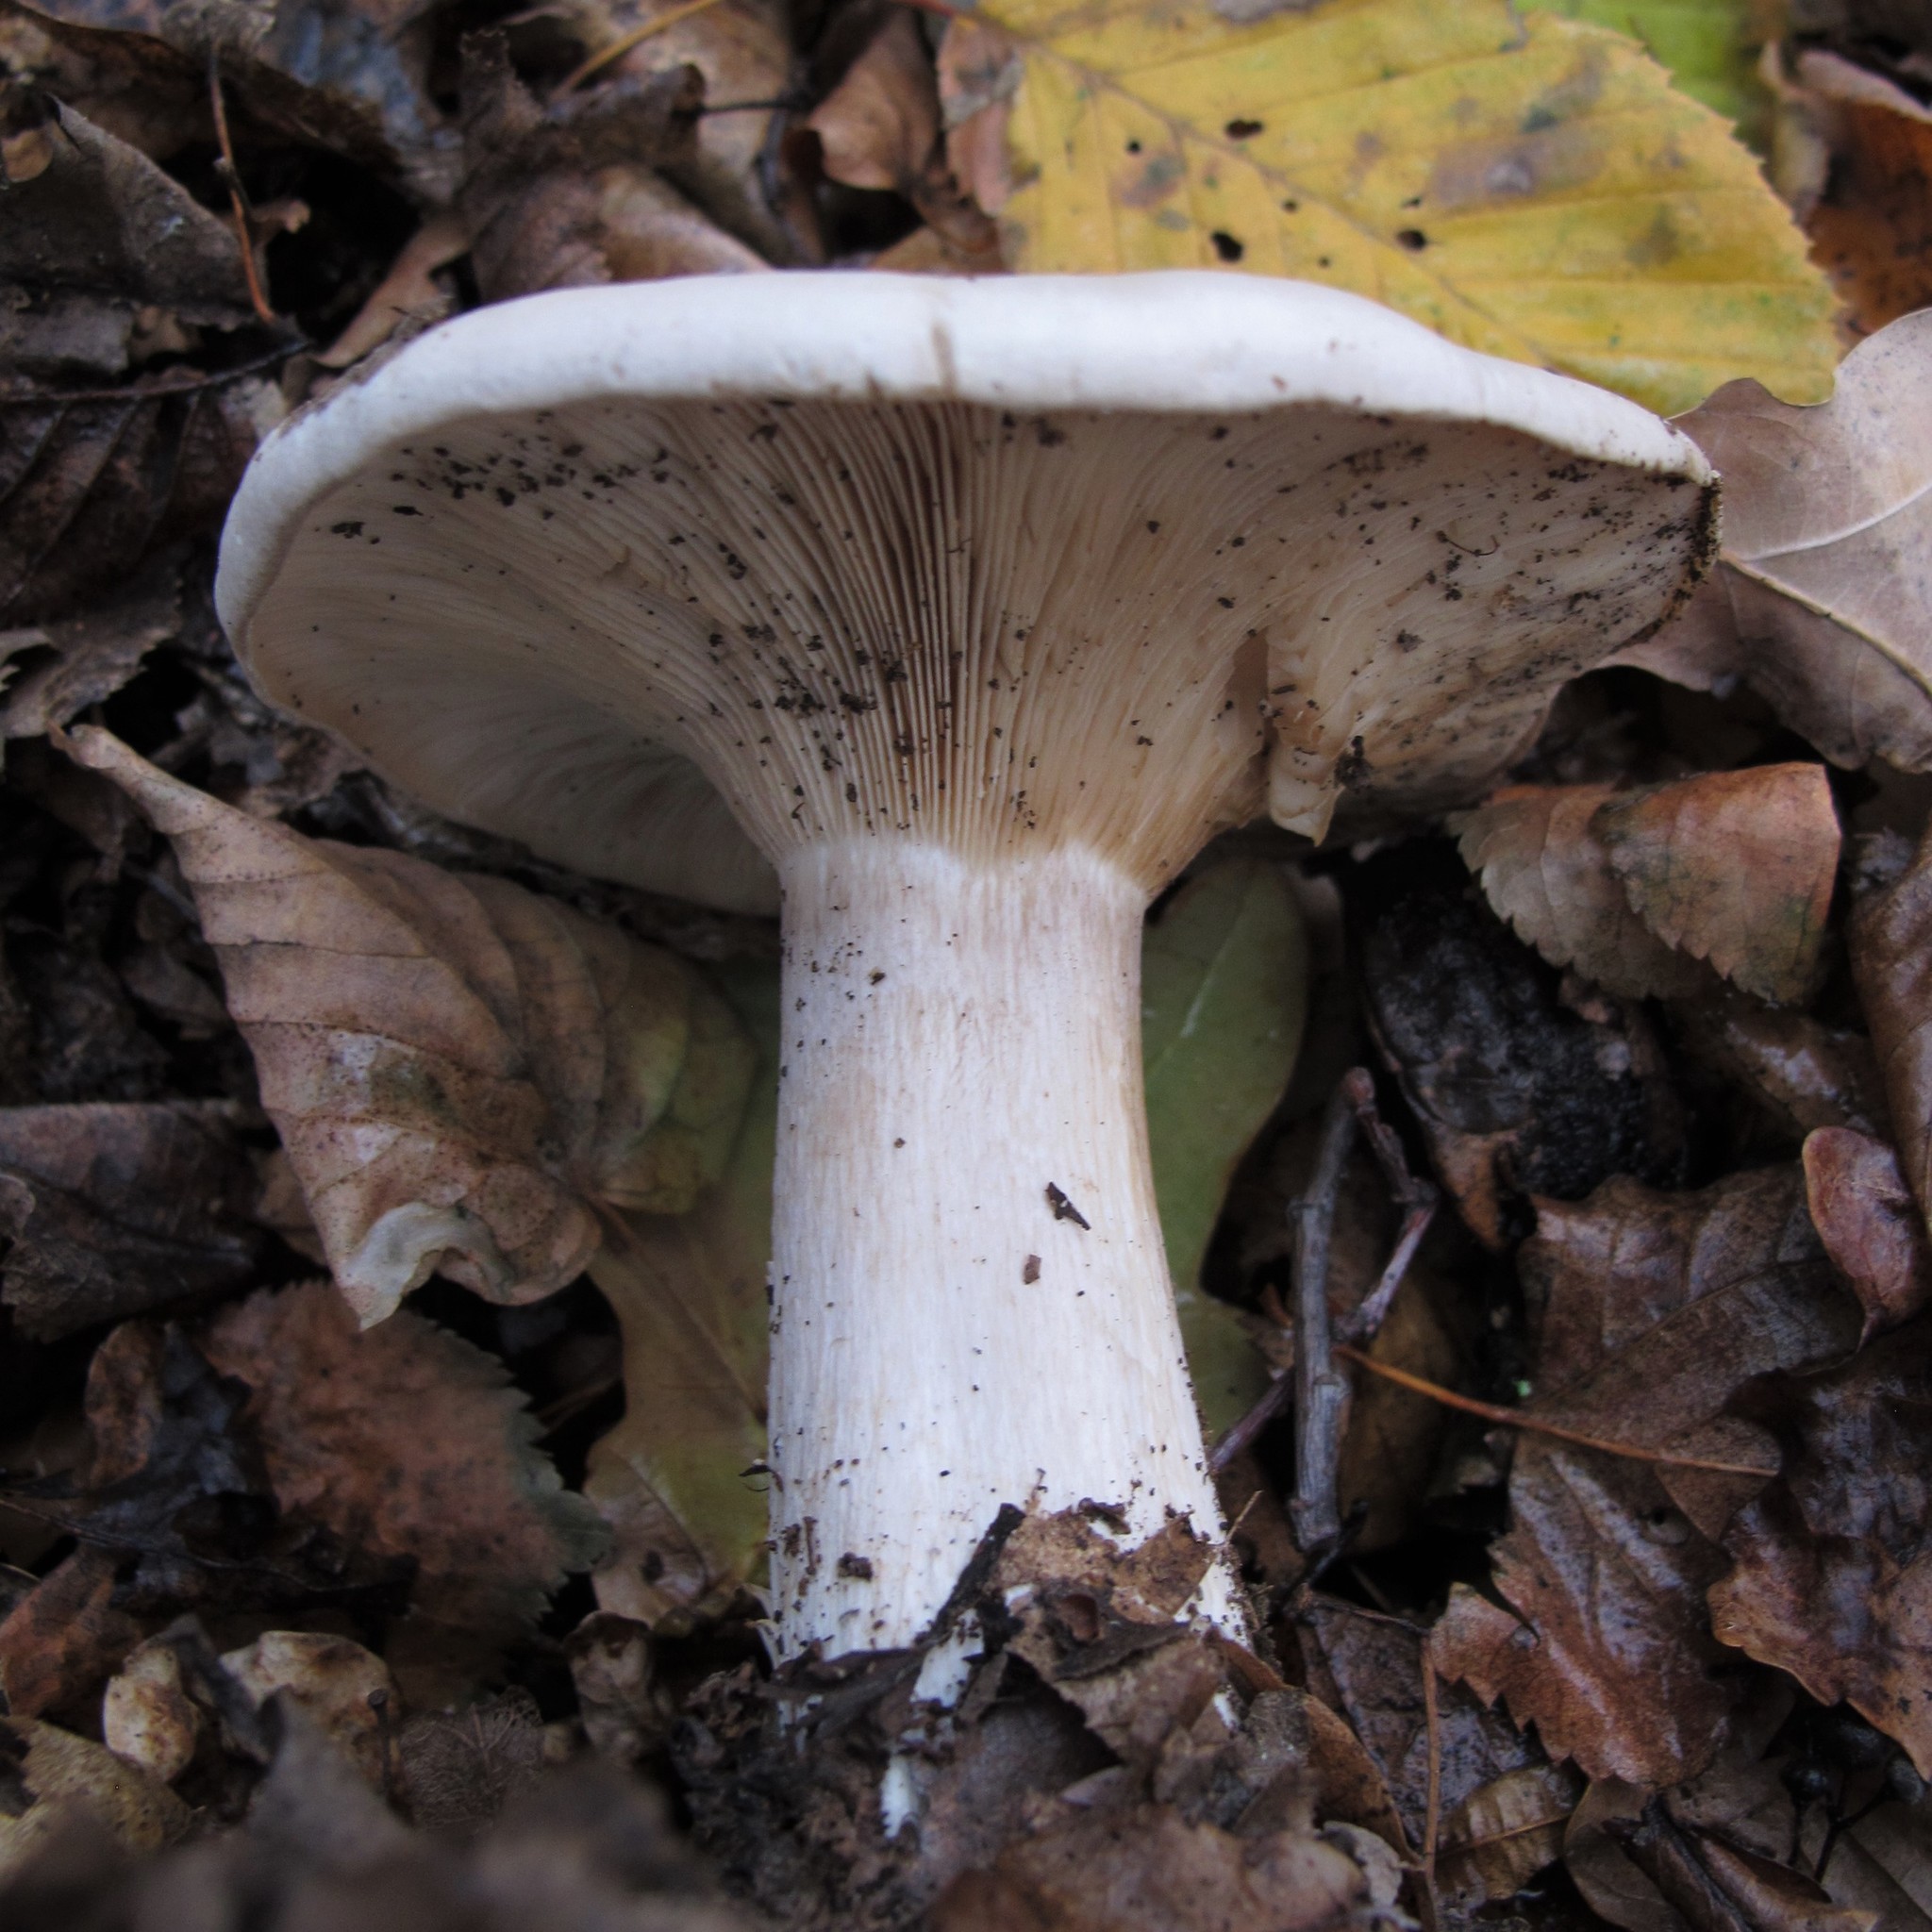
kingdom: Fungi
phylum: Basidiomycota
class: Agaricomycetes
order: Agaricales
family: Tricholomataceae
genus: Clitocybe
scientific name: Clitocybe nebularis
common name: Clouded agaric
